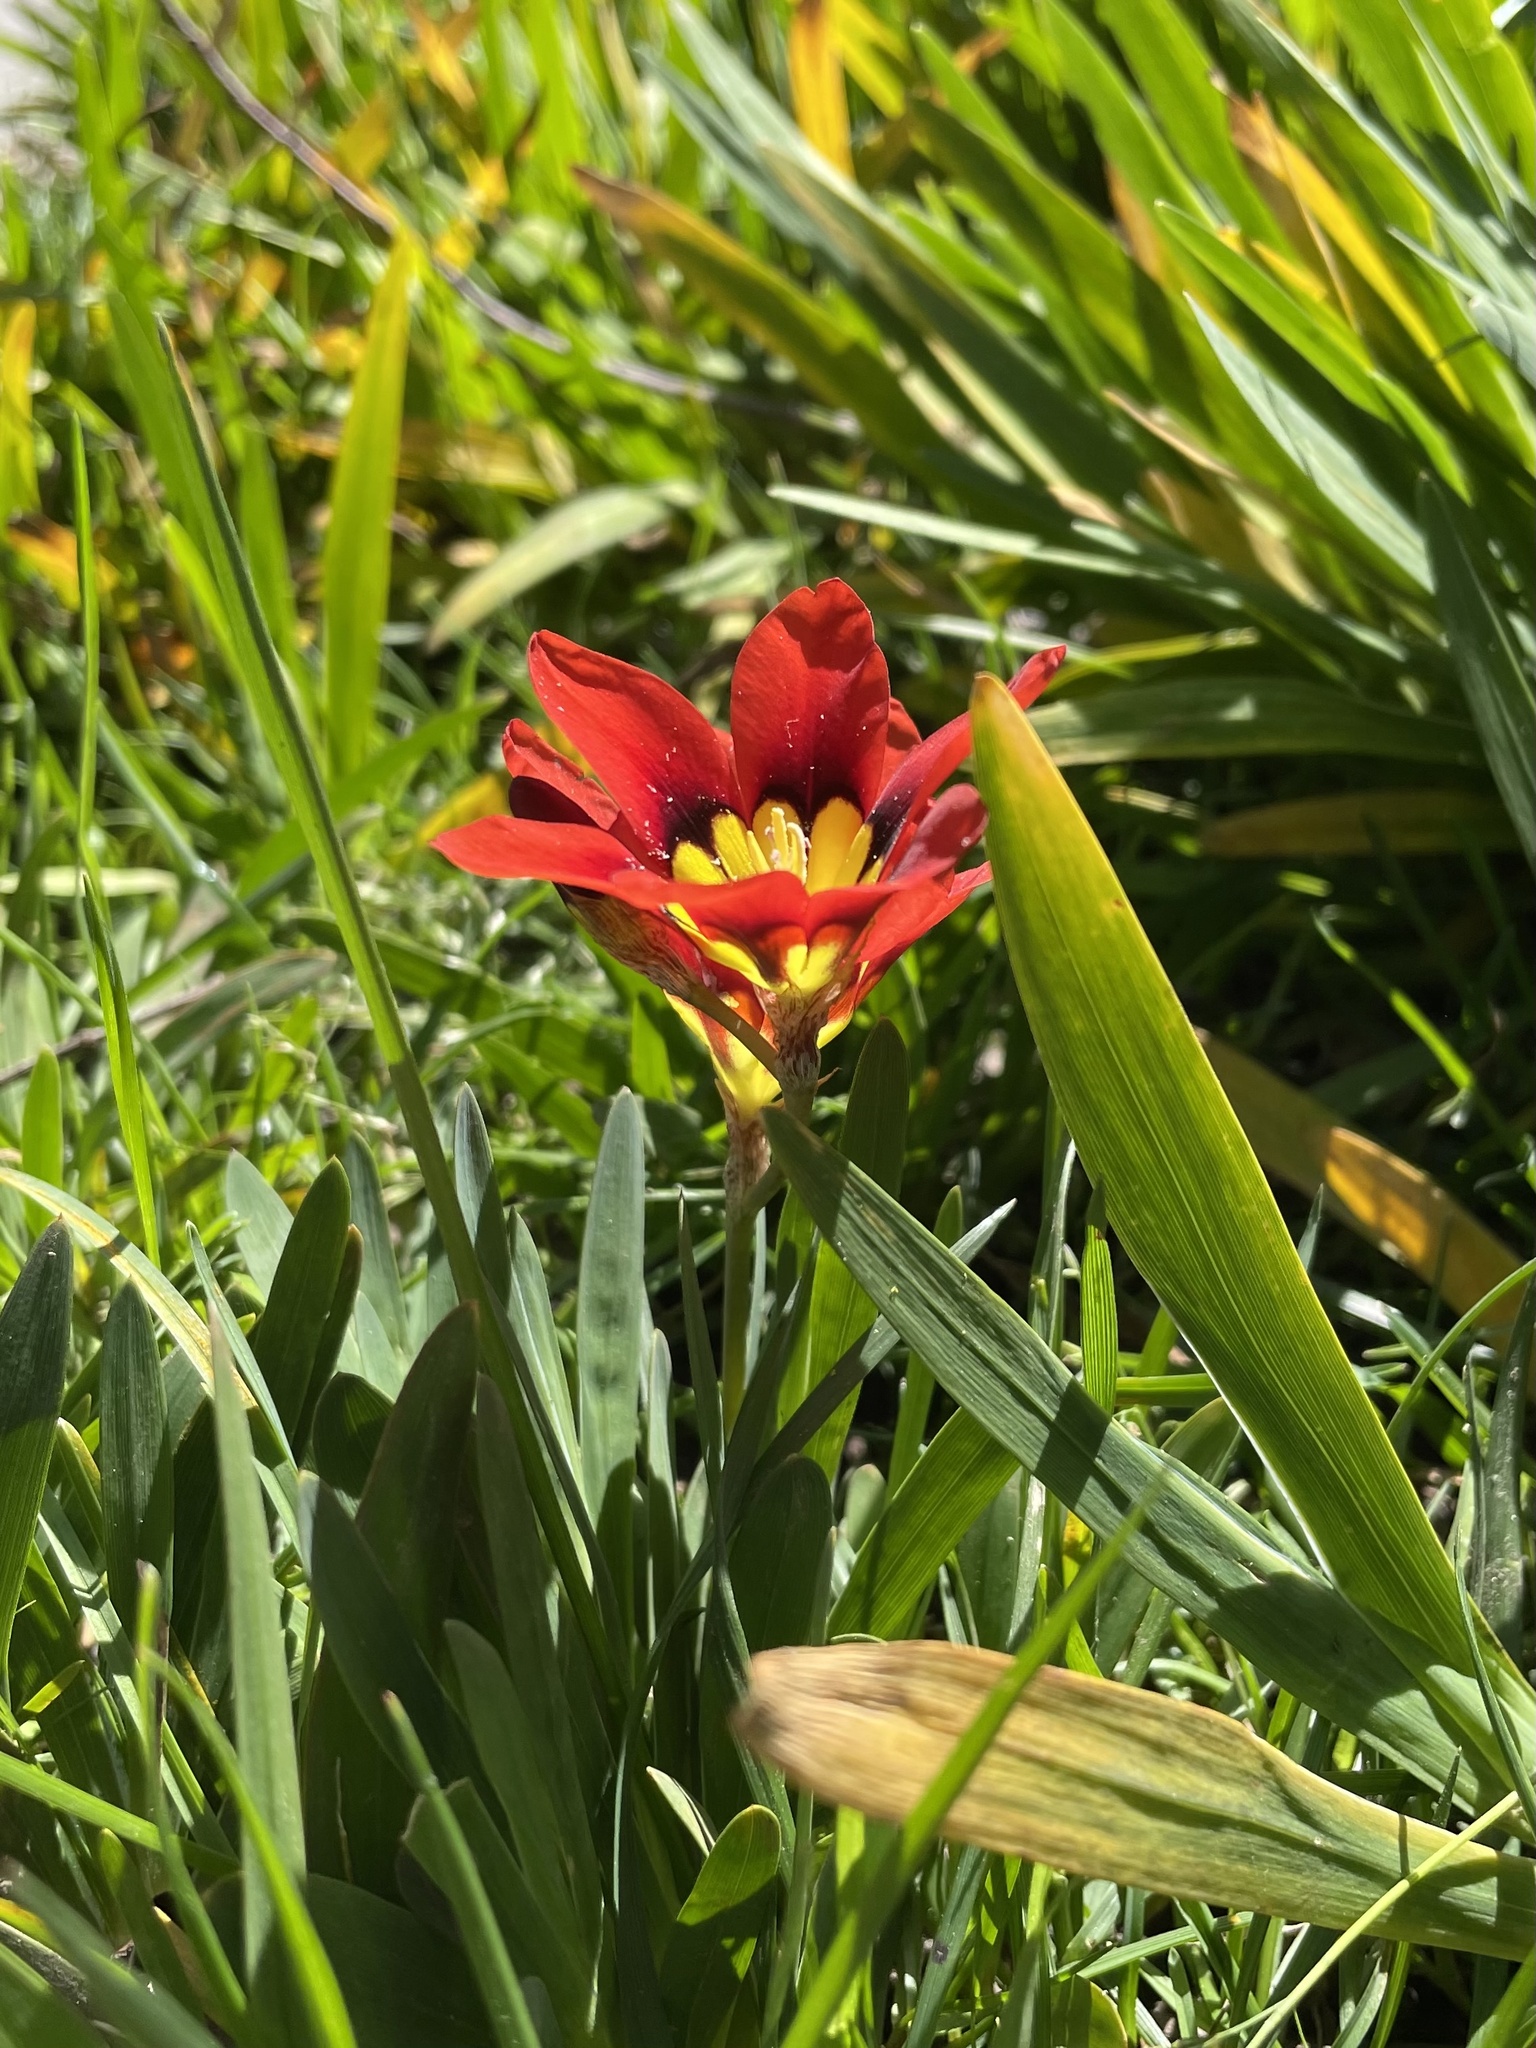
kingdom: Plantae
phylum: Tracheophyta
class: Liliopsida
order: Asparagales
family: Iridaceae
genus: Sparaxis
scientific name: Sparaxis tricolor
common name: Wandflower
